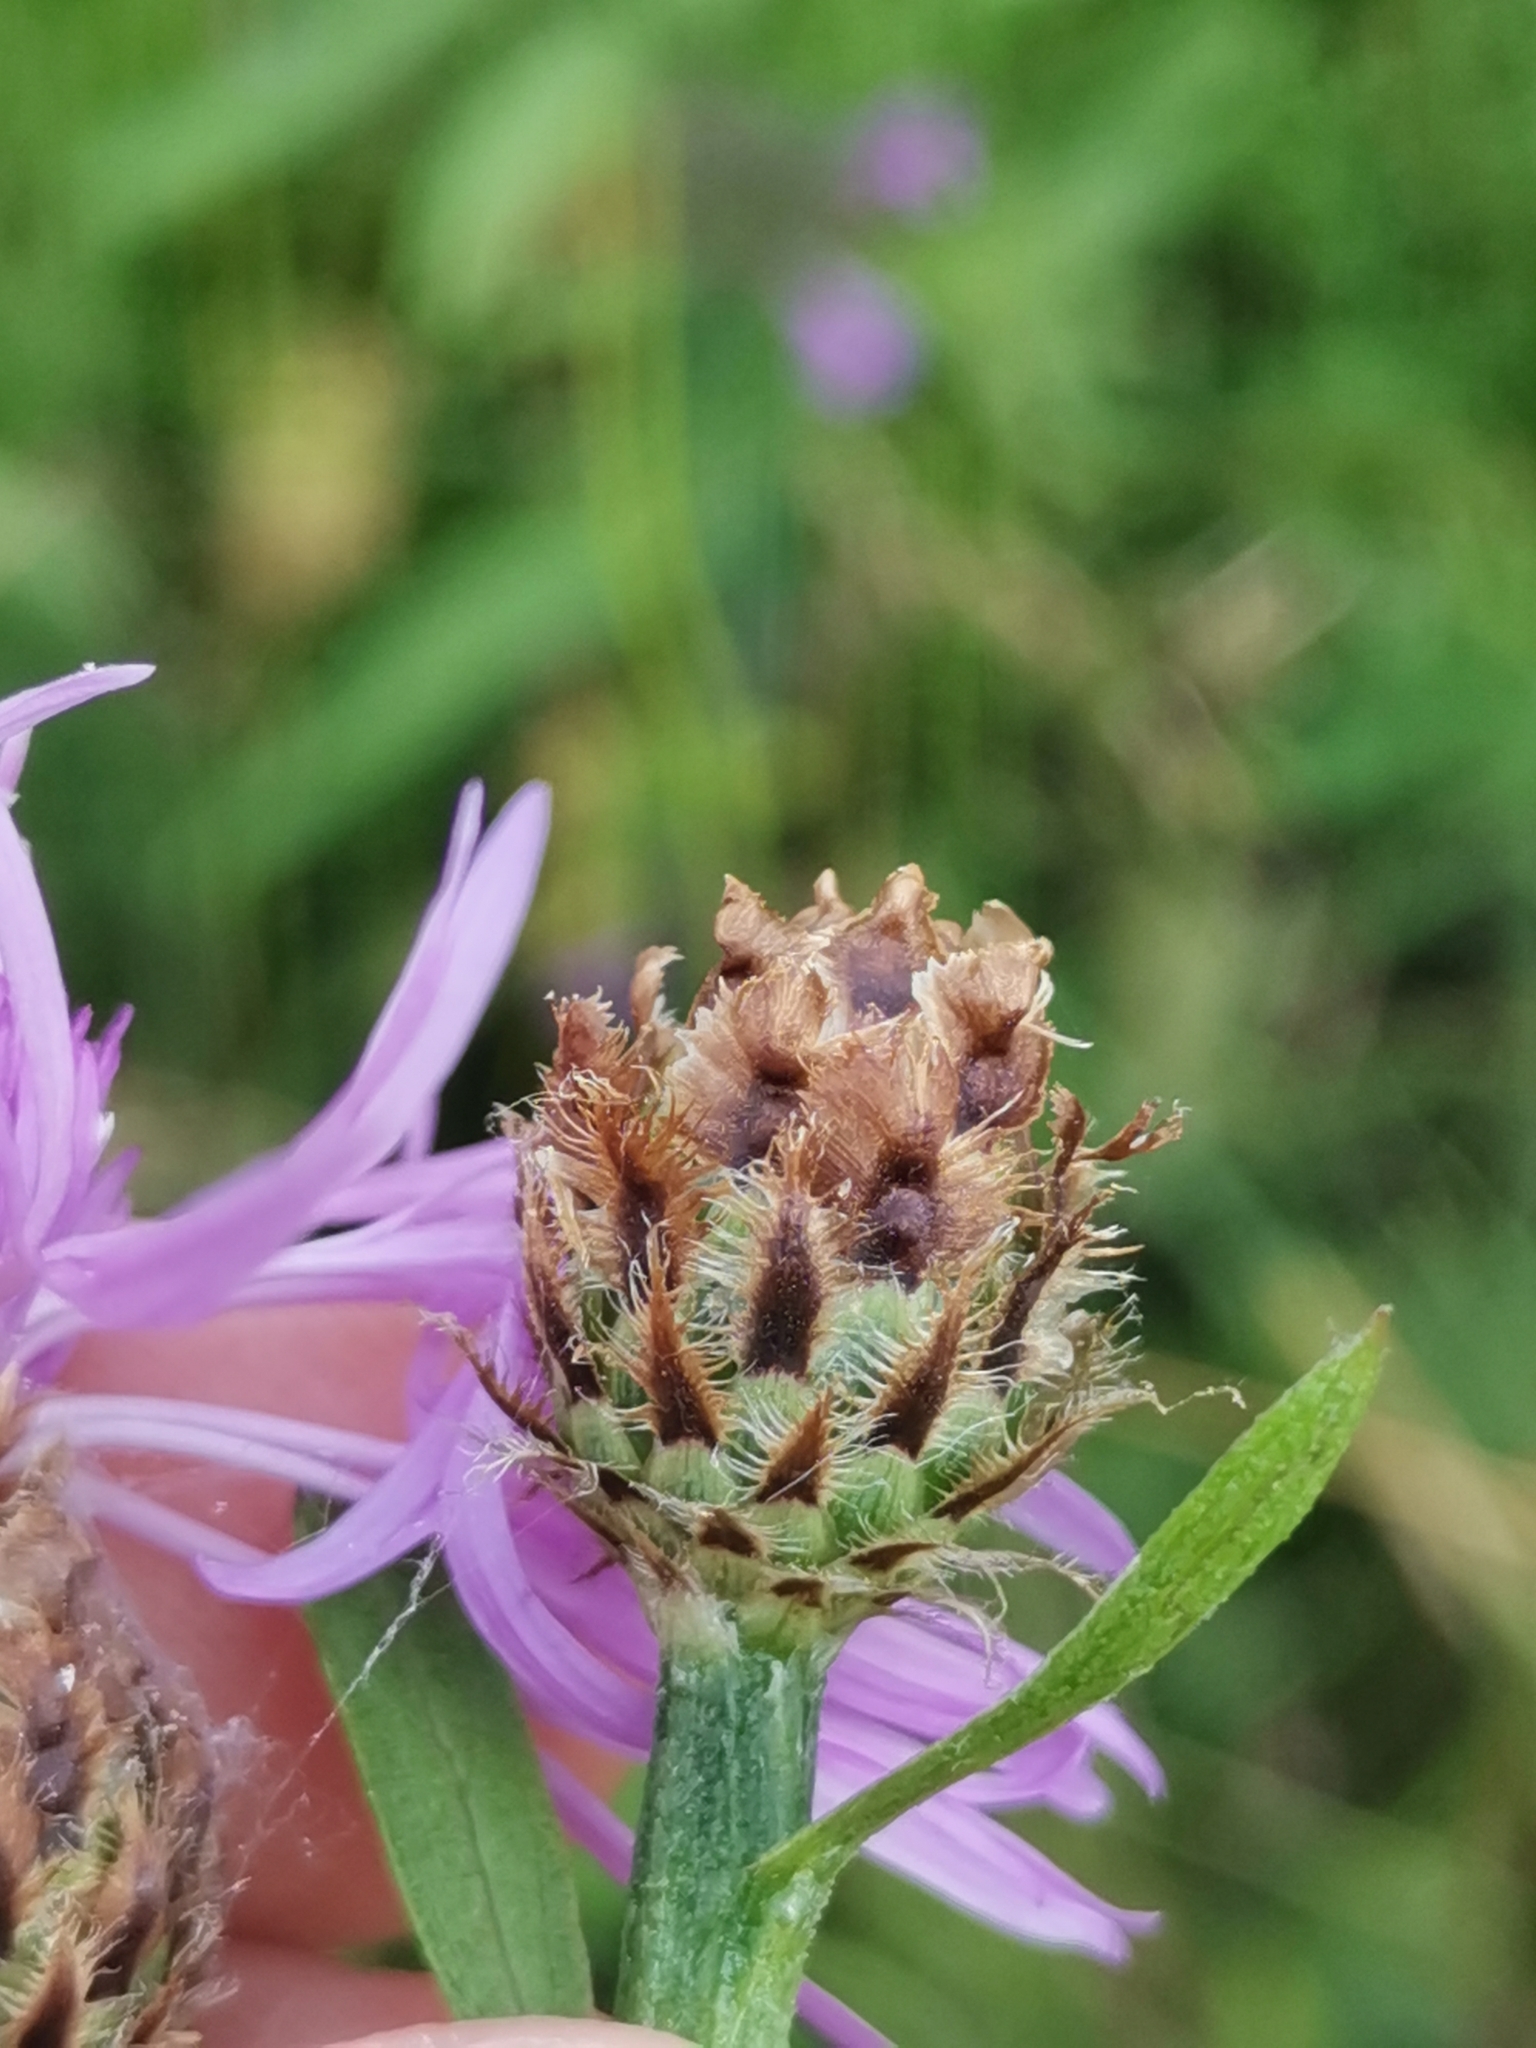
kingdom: Plantae
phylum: Tracheophyta
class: Magnoliopsida
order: Asterales
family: Asteraceae
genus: Centaurea
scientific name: Centaurea preissmannii
